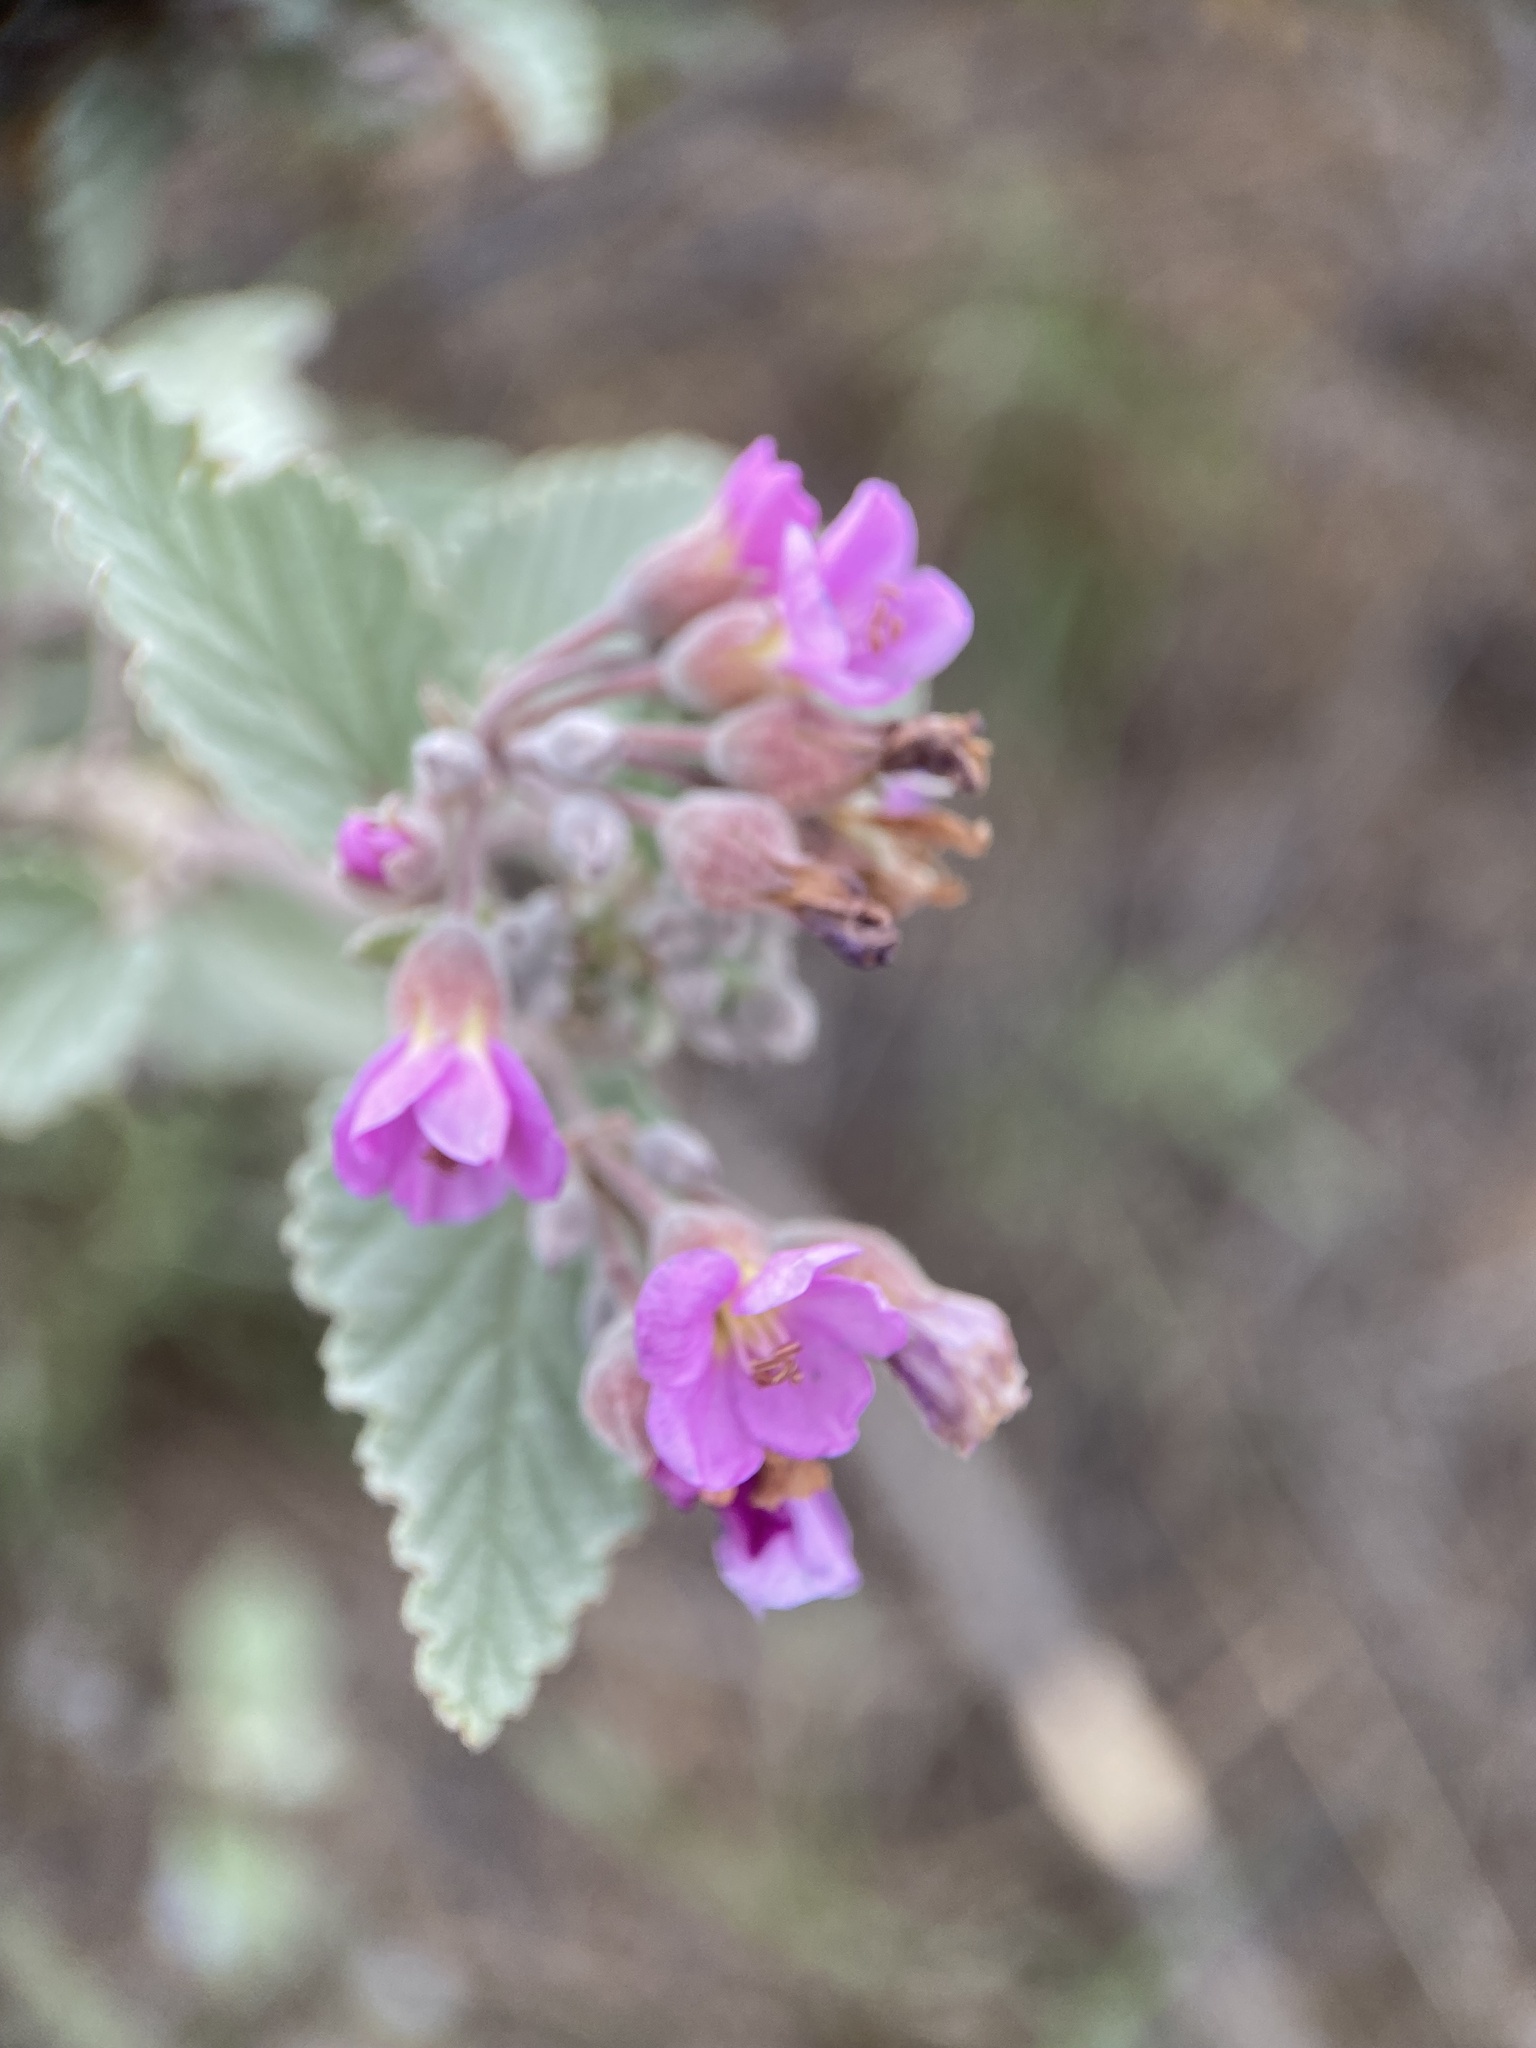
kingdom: Plantae
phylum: Tracheophyta
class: Magnoliopsida
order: Malvales
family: Malvaceae
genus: Melochia
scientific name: Melochia tomentosa
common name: Black torch
